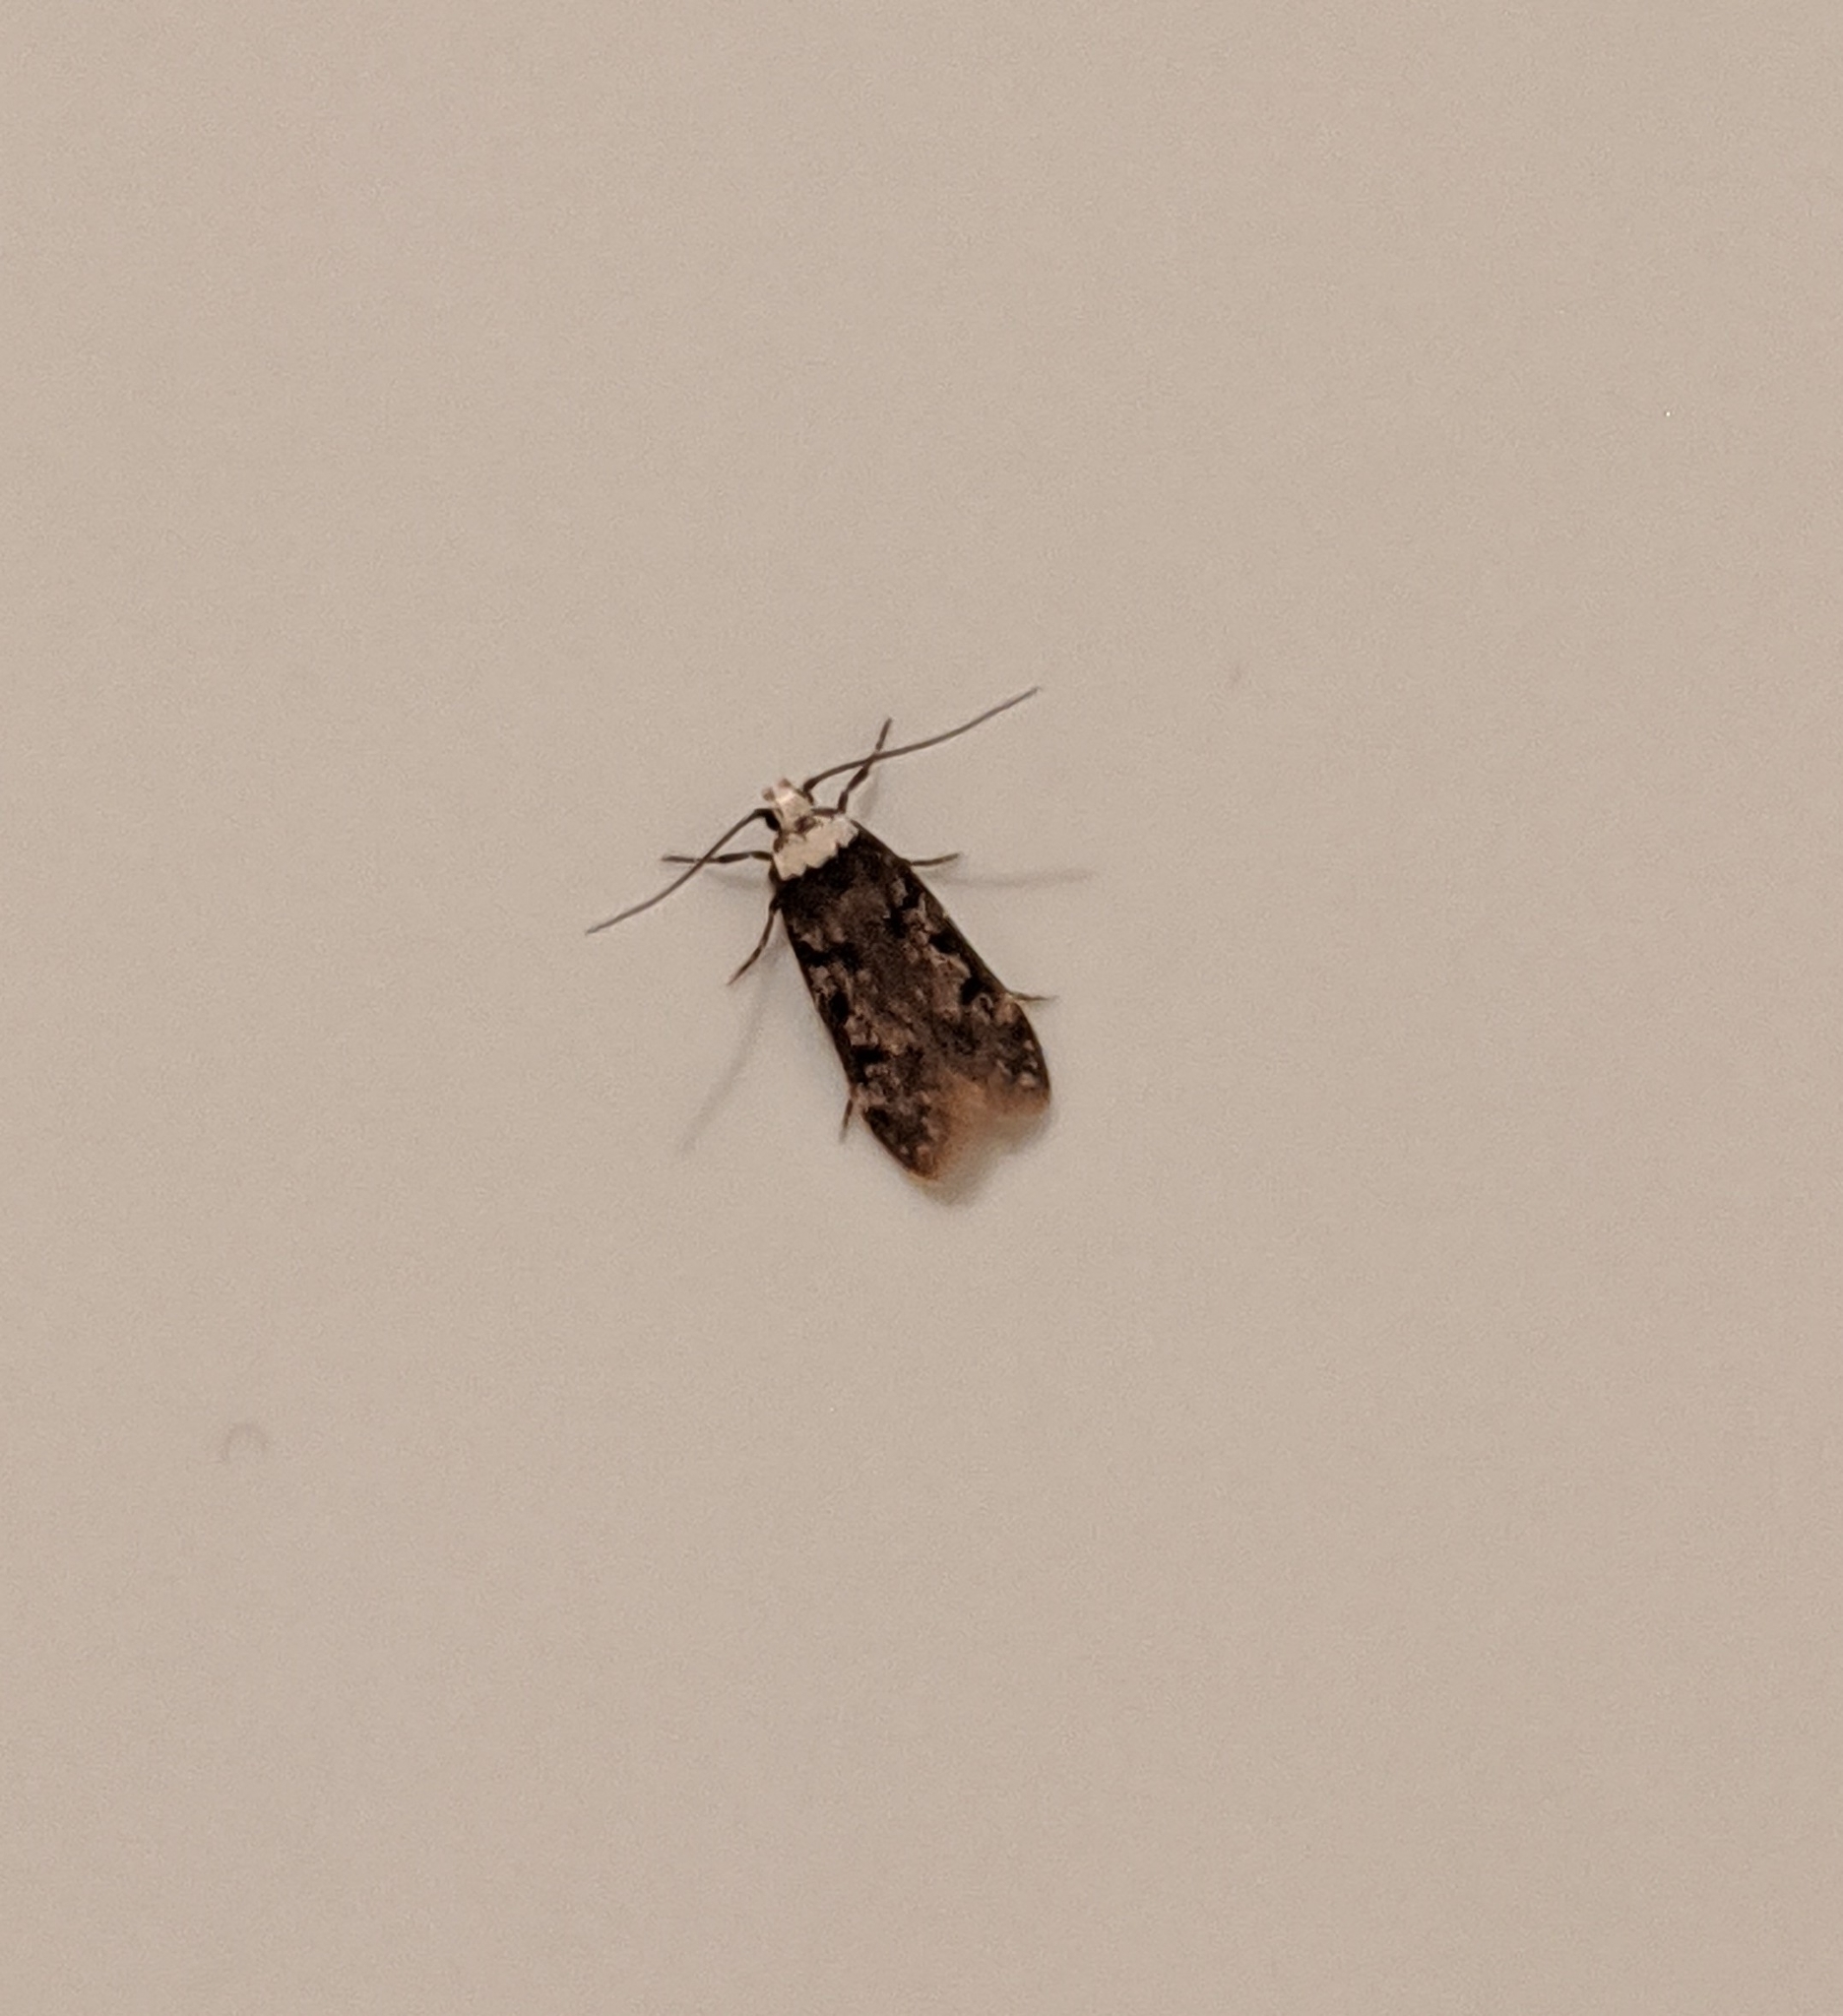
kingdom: Animalia
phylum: Arthropoda
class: Insecta
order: Lepidoptera
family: Oecophoridae
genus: Endrosis
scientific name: Endrosis sarcitrella
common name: White-shouldered house moth
